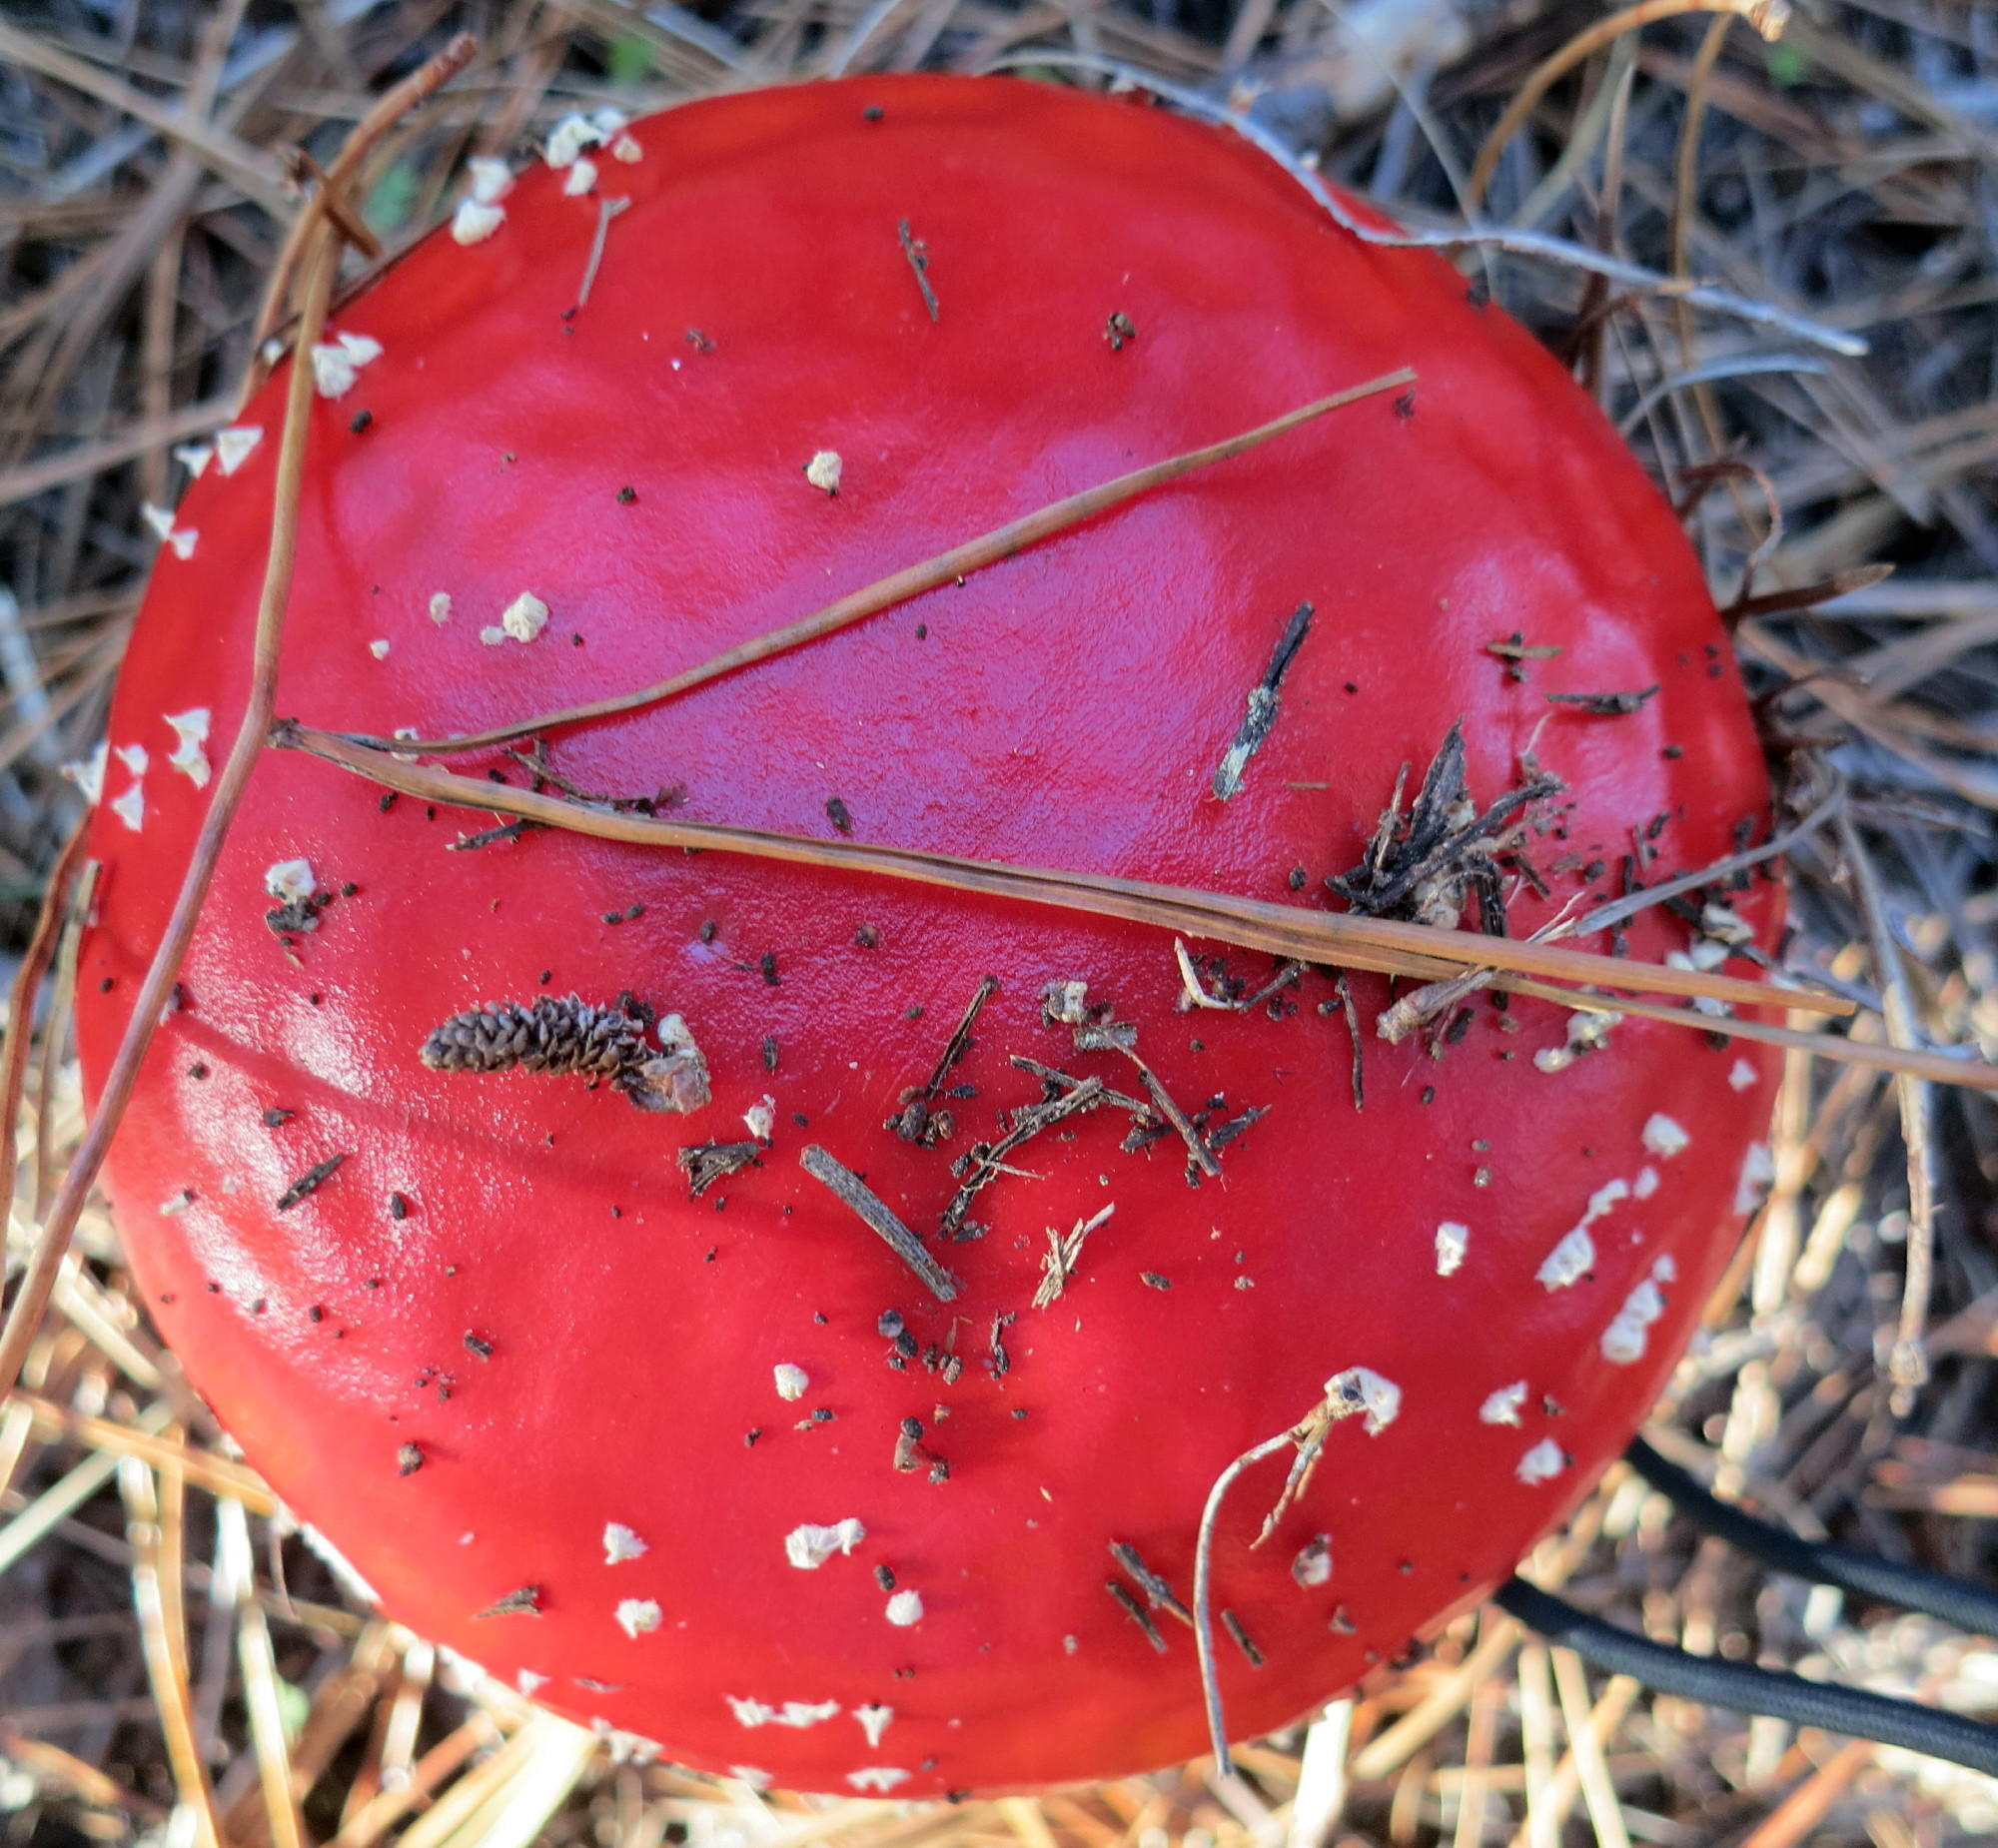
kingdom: Fungi
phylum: Basidiomycota
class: Agaricomycetes
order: Agaricales
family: Amanitaceae
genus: Amanita
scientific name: Amanita muscaria
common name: Fly agaric
